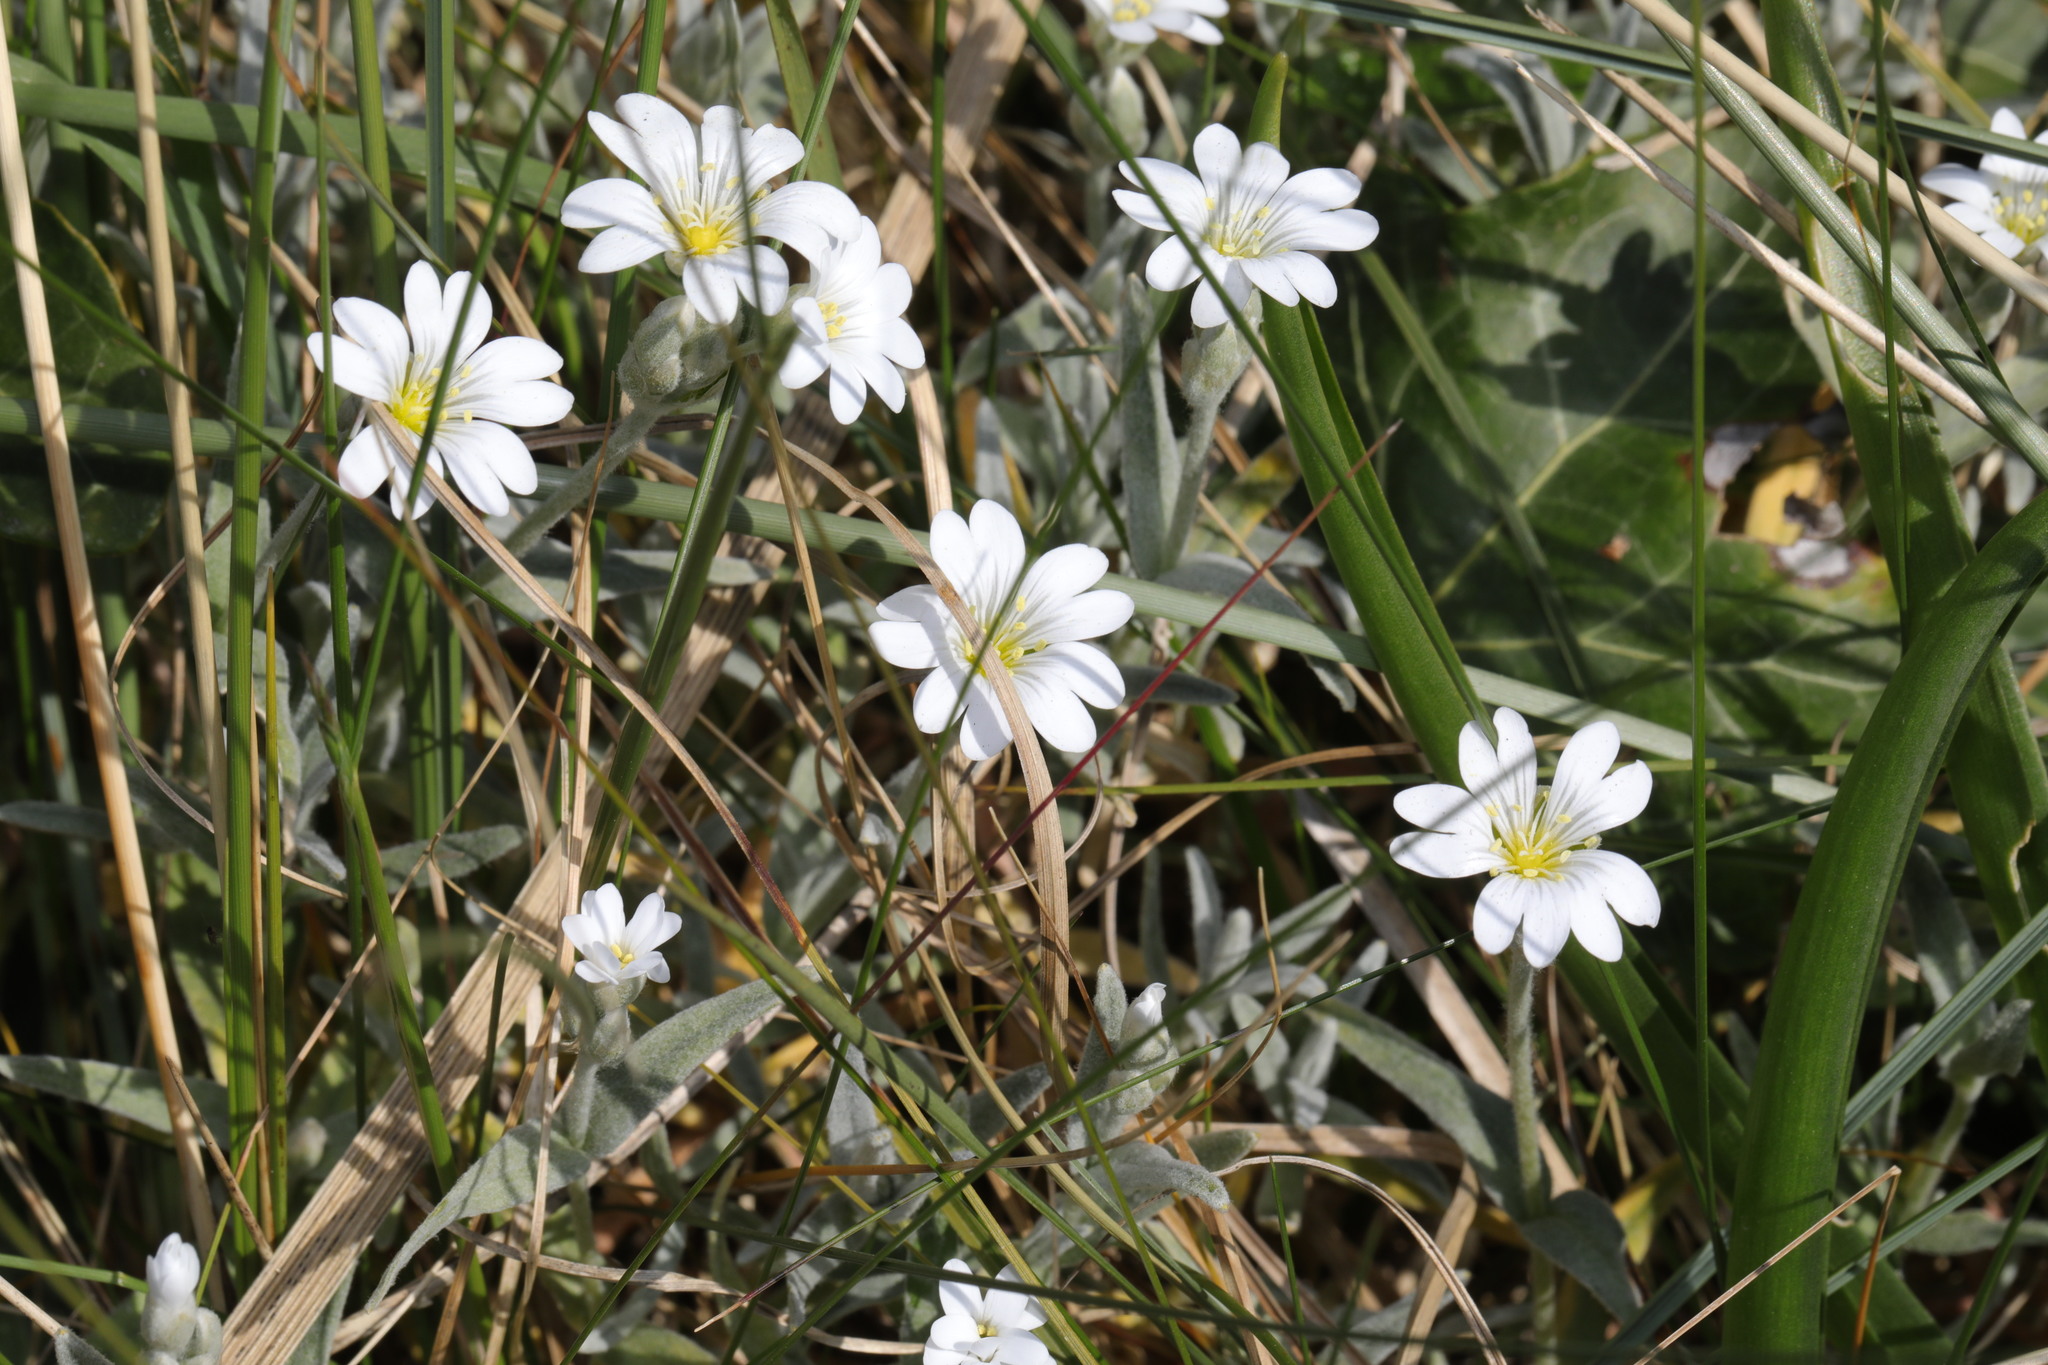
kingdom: Plantae
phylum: Tracheophyta
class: Magnoliopsida
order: Caryophyllales
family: Caryophyllaceae
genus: Cerastium
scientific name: Cerastium tomentosum
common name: Snow-in-summer
